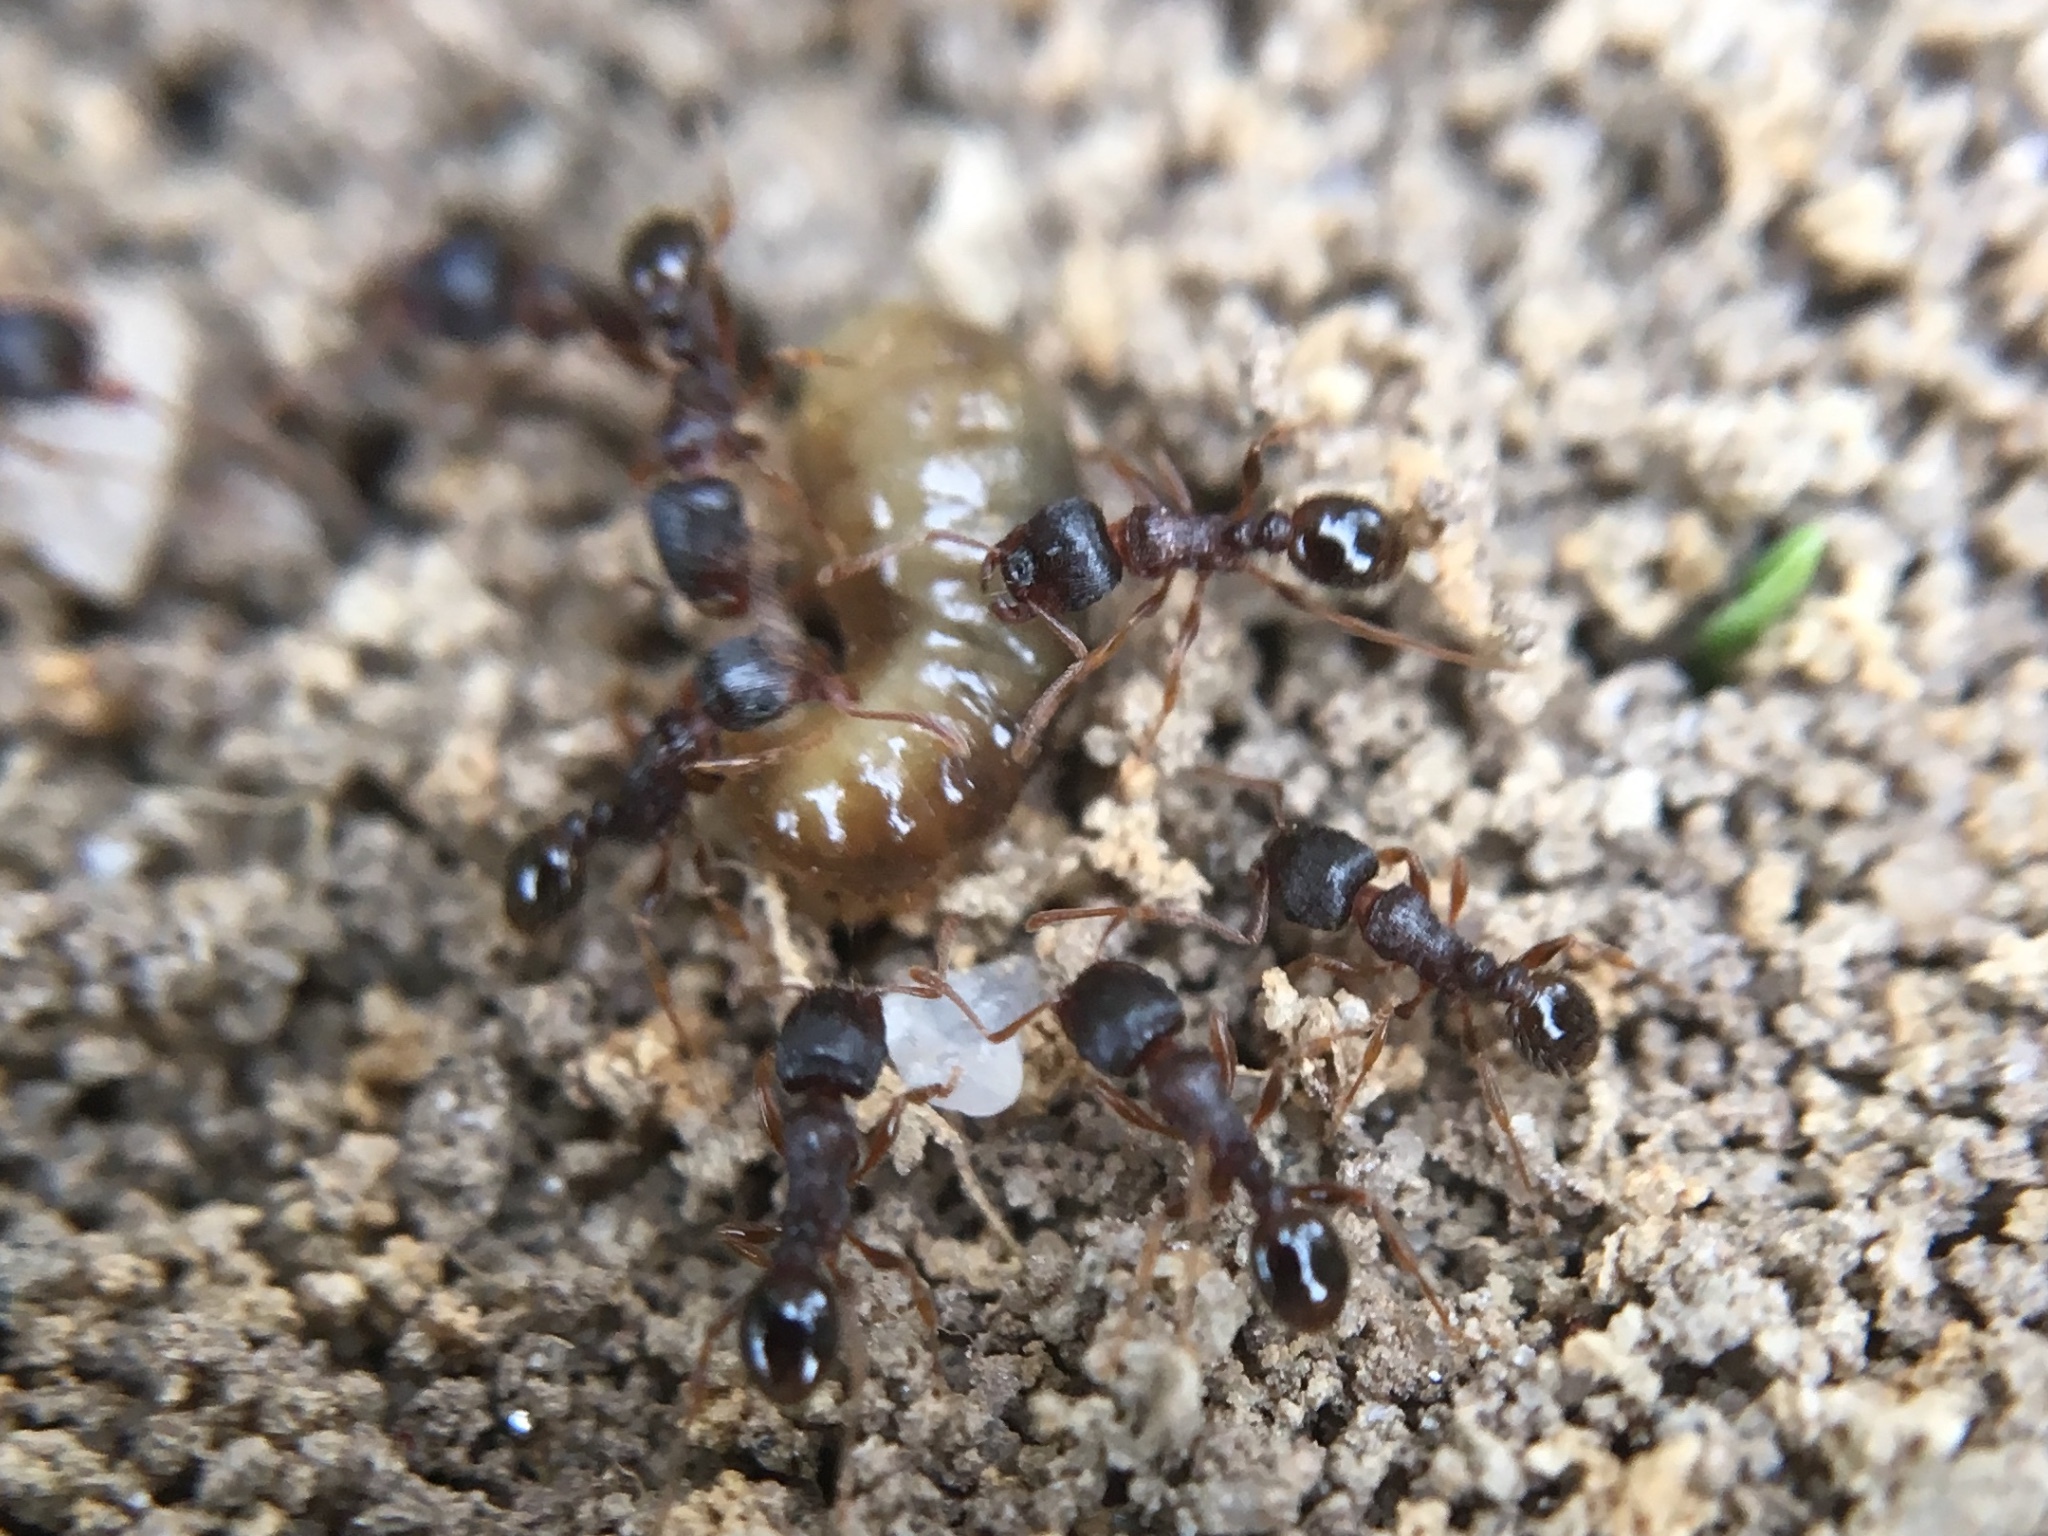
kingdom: Animalia
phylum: Arthropoda
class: Insecta
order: Hymenoptera
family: Formicidae
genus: Tetramorium
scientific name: Tetramorium immigrans
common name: Pavement ant
